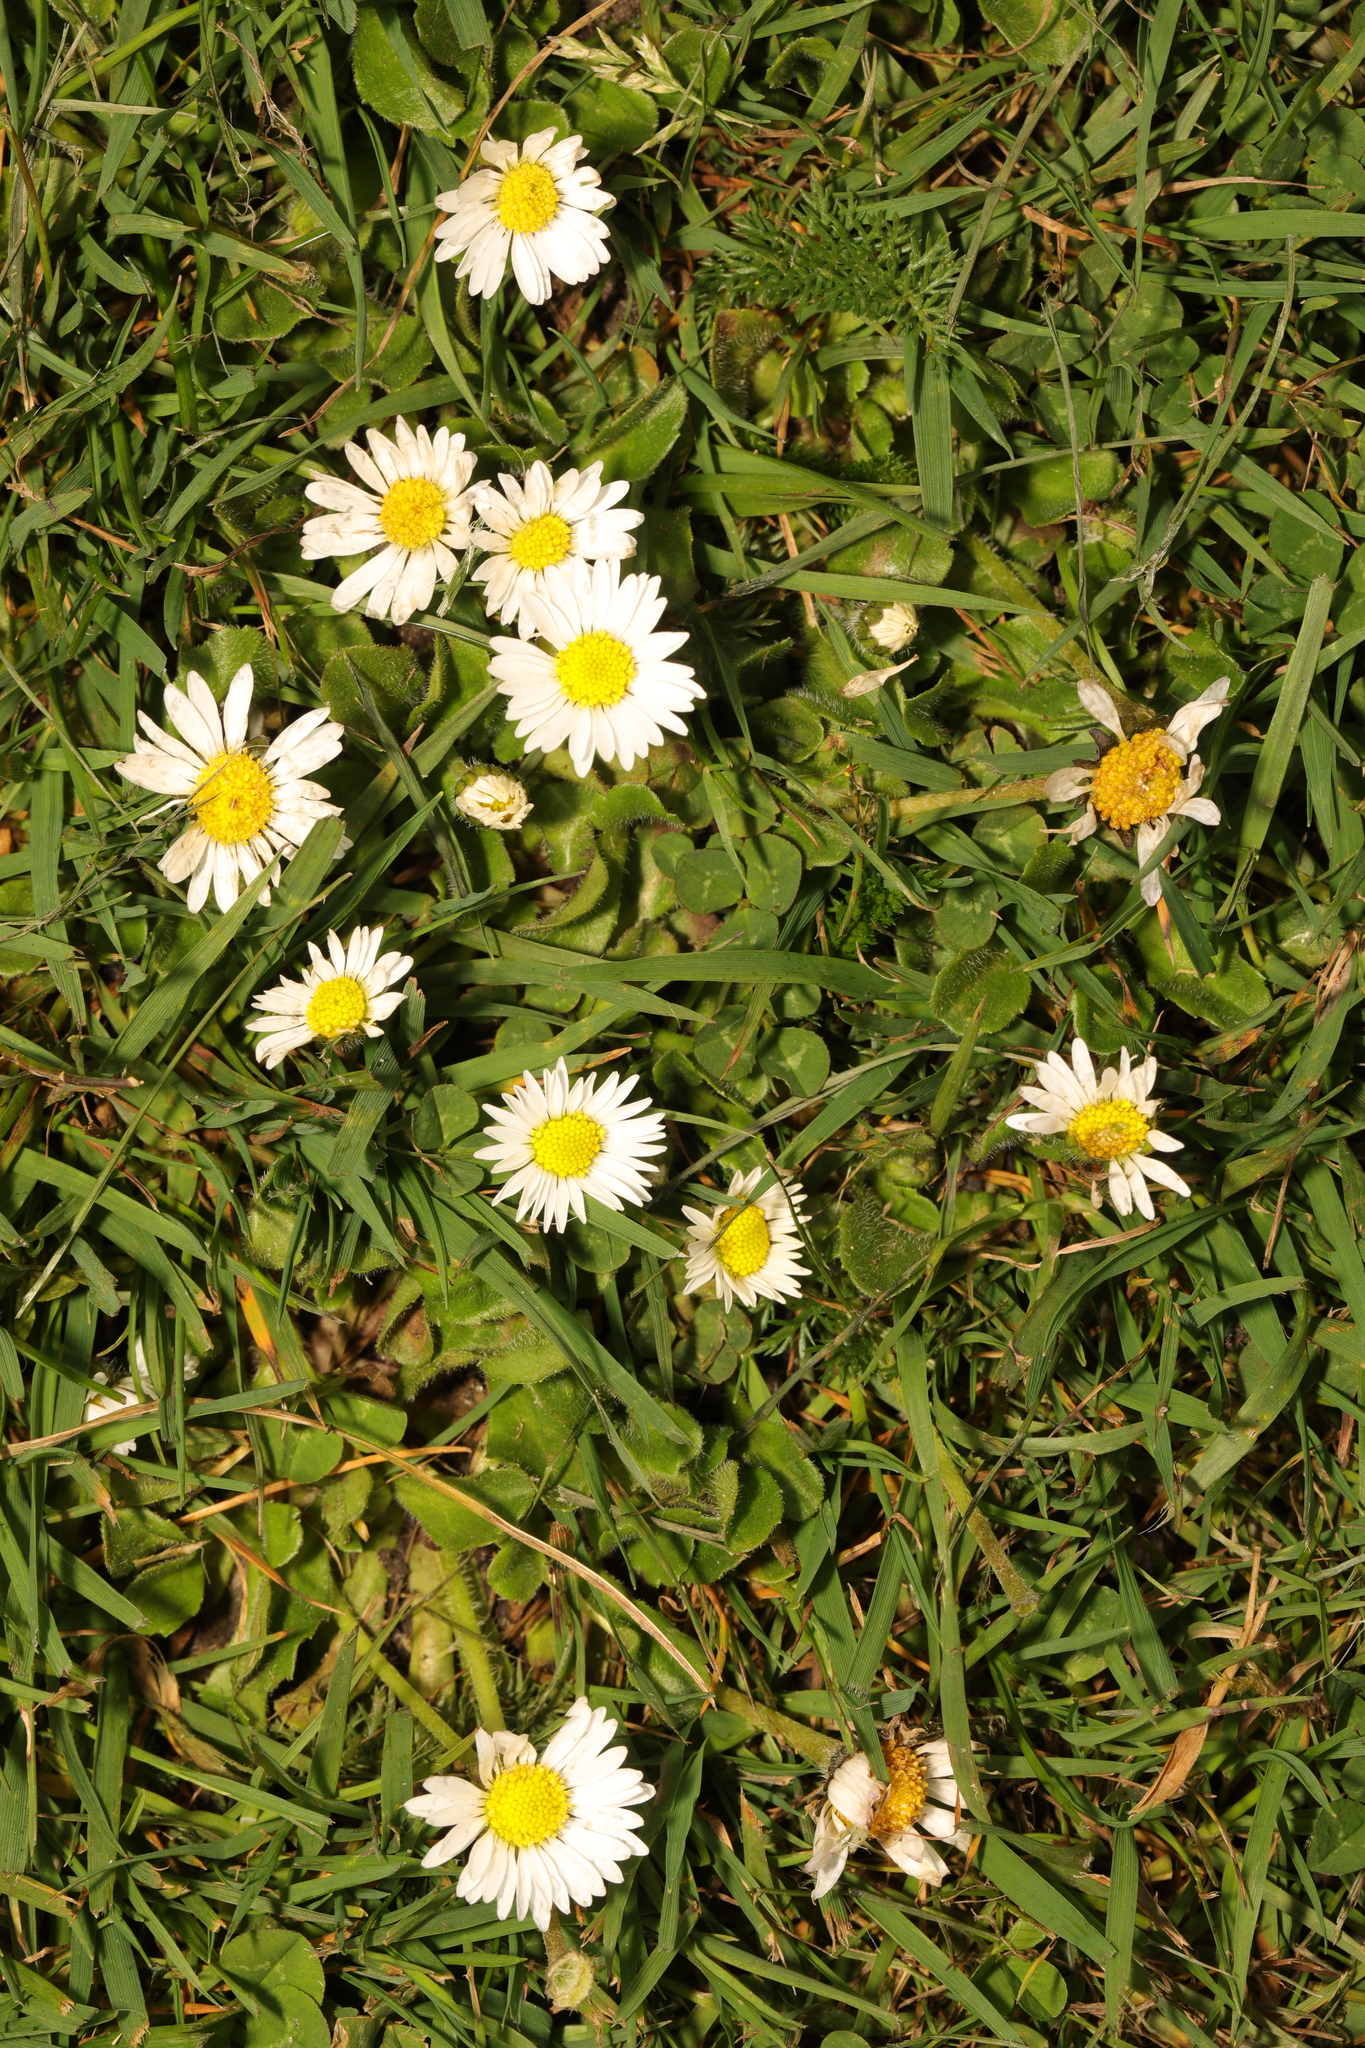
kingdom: Plantae
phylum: Tracheophyta
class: Magnoliopsida
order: Asterales
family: Asteraceae
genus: Bellis
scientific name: Bellis perennis
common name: Lawndaisy
